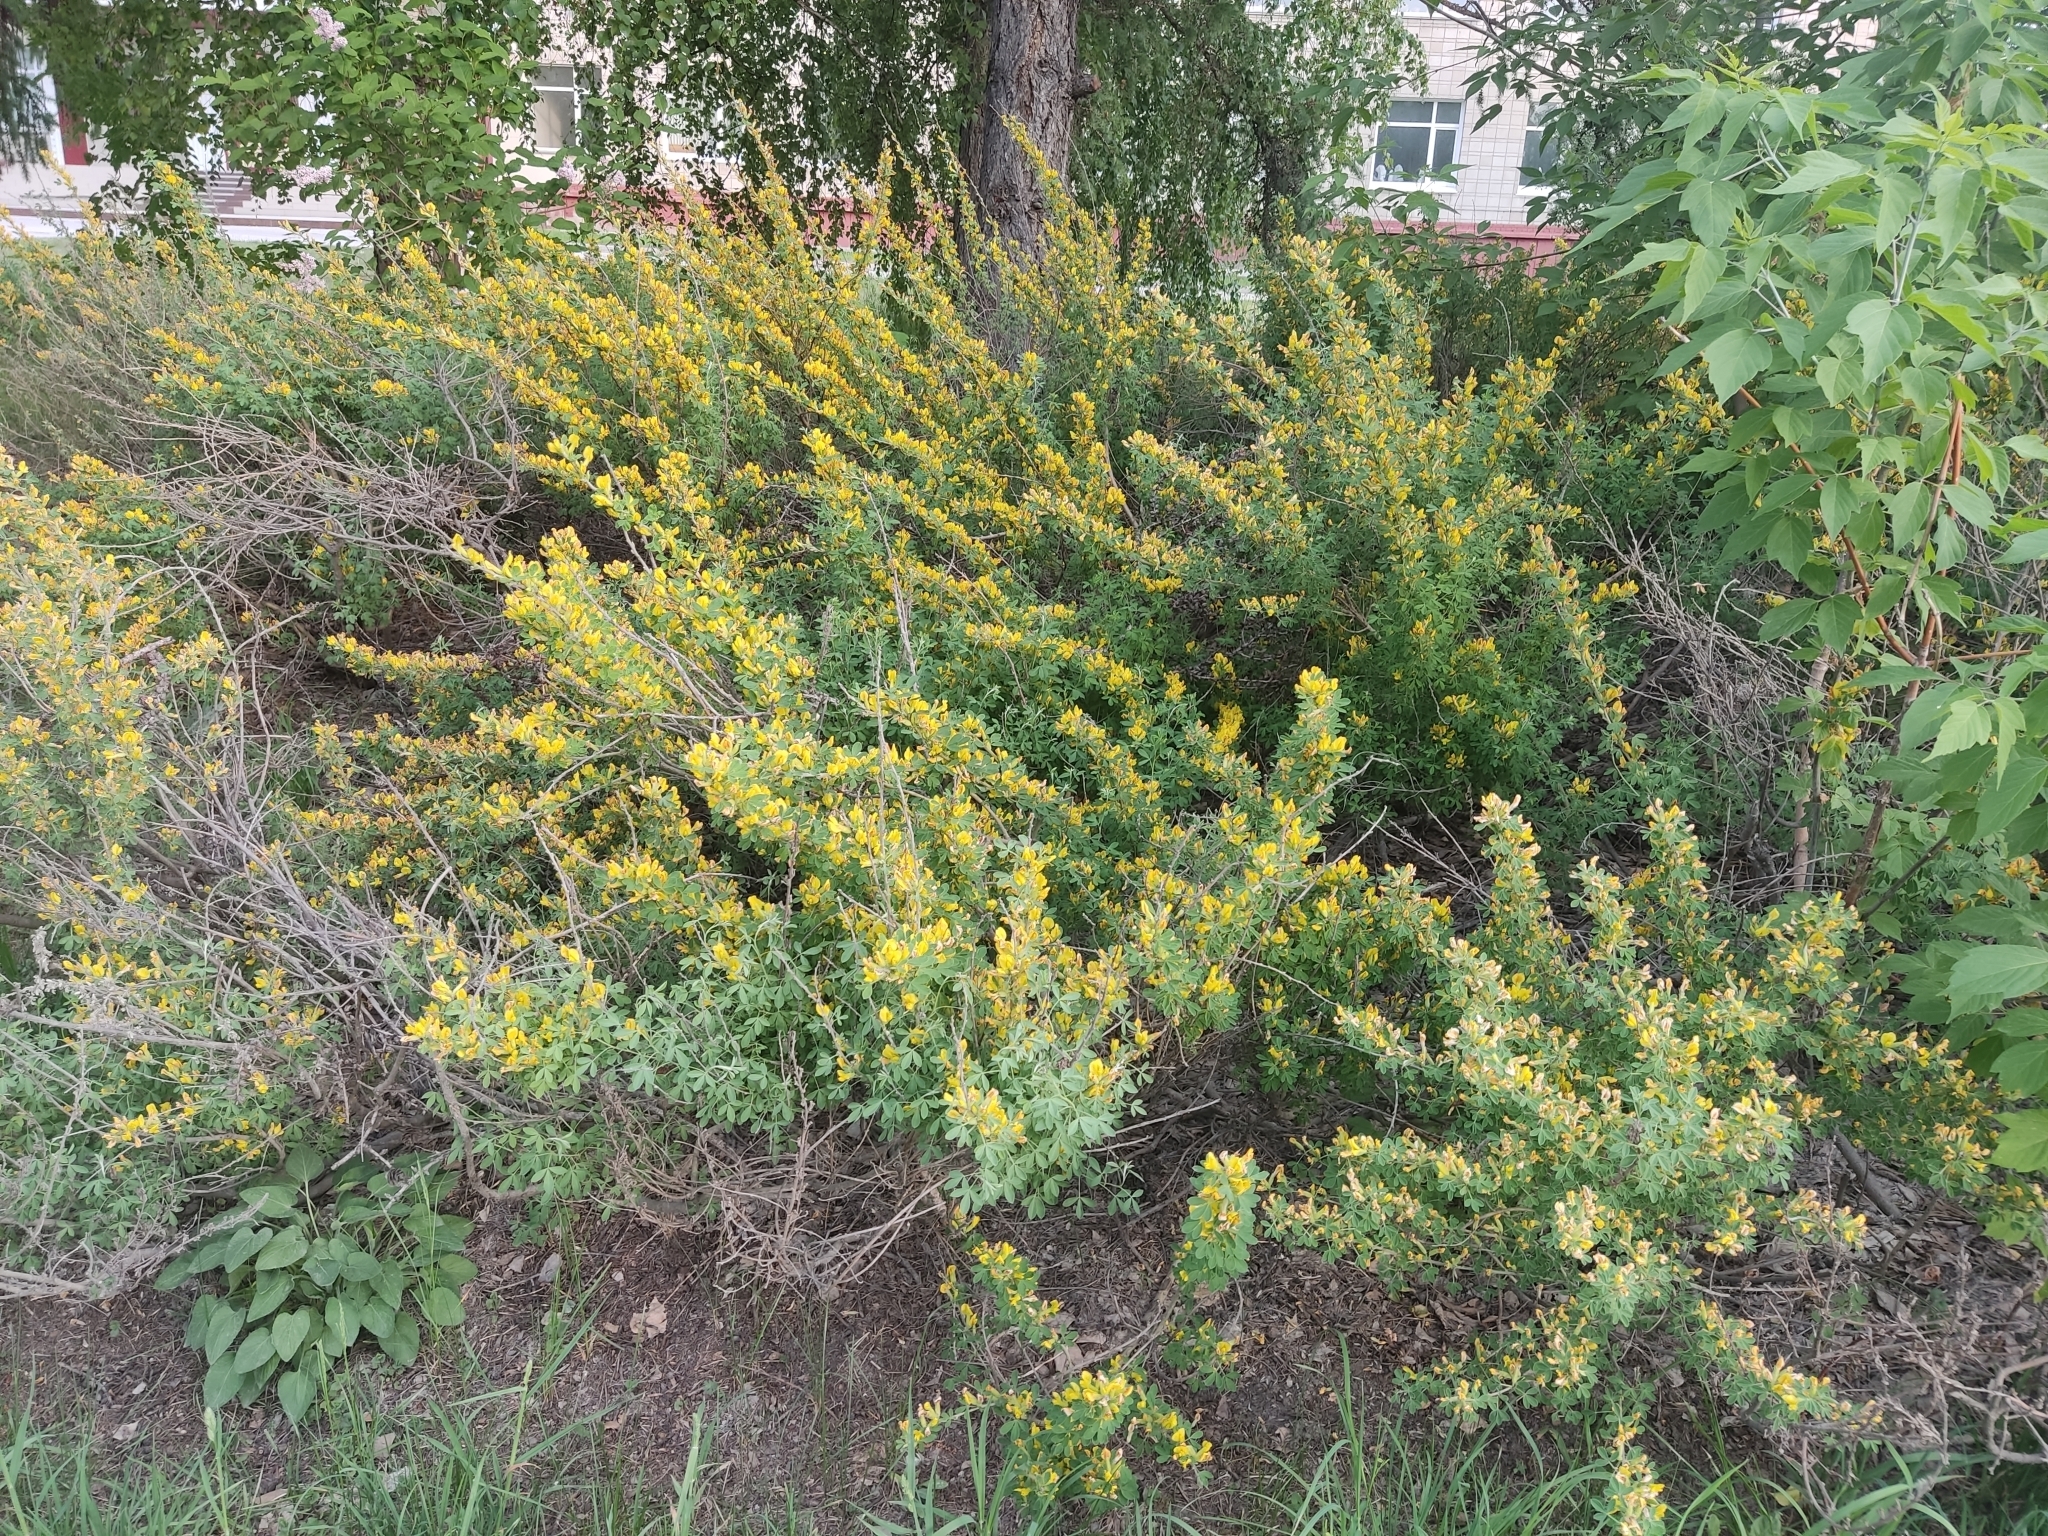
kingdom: Plantae
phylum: Tracheophyta
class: Magnoliopsida
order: Fabales
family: Fabaceae
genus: Chamaecytisus
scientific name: Chamaecytisus ruthenicus
